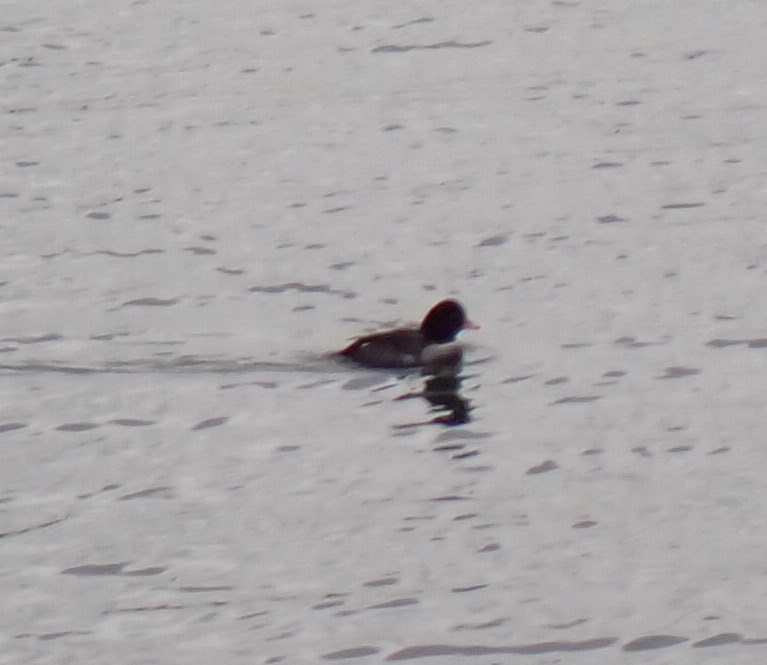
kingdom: Animalia
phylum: Chordata
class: Aves
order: Anseriformes
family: Anatidae
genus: Bucephala
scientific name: Bucephala islandica
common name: Barrow's goldeneye
